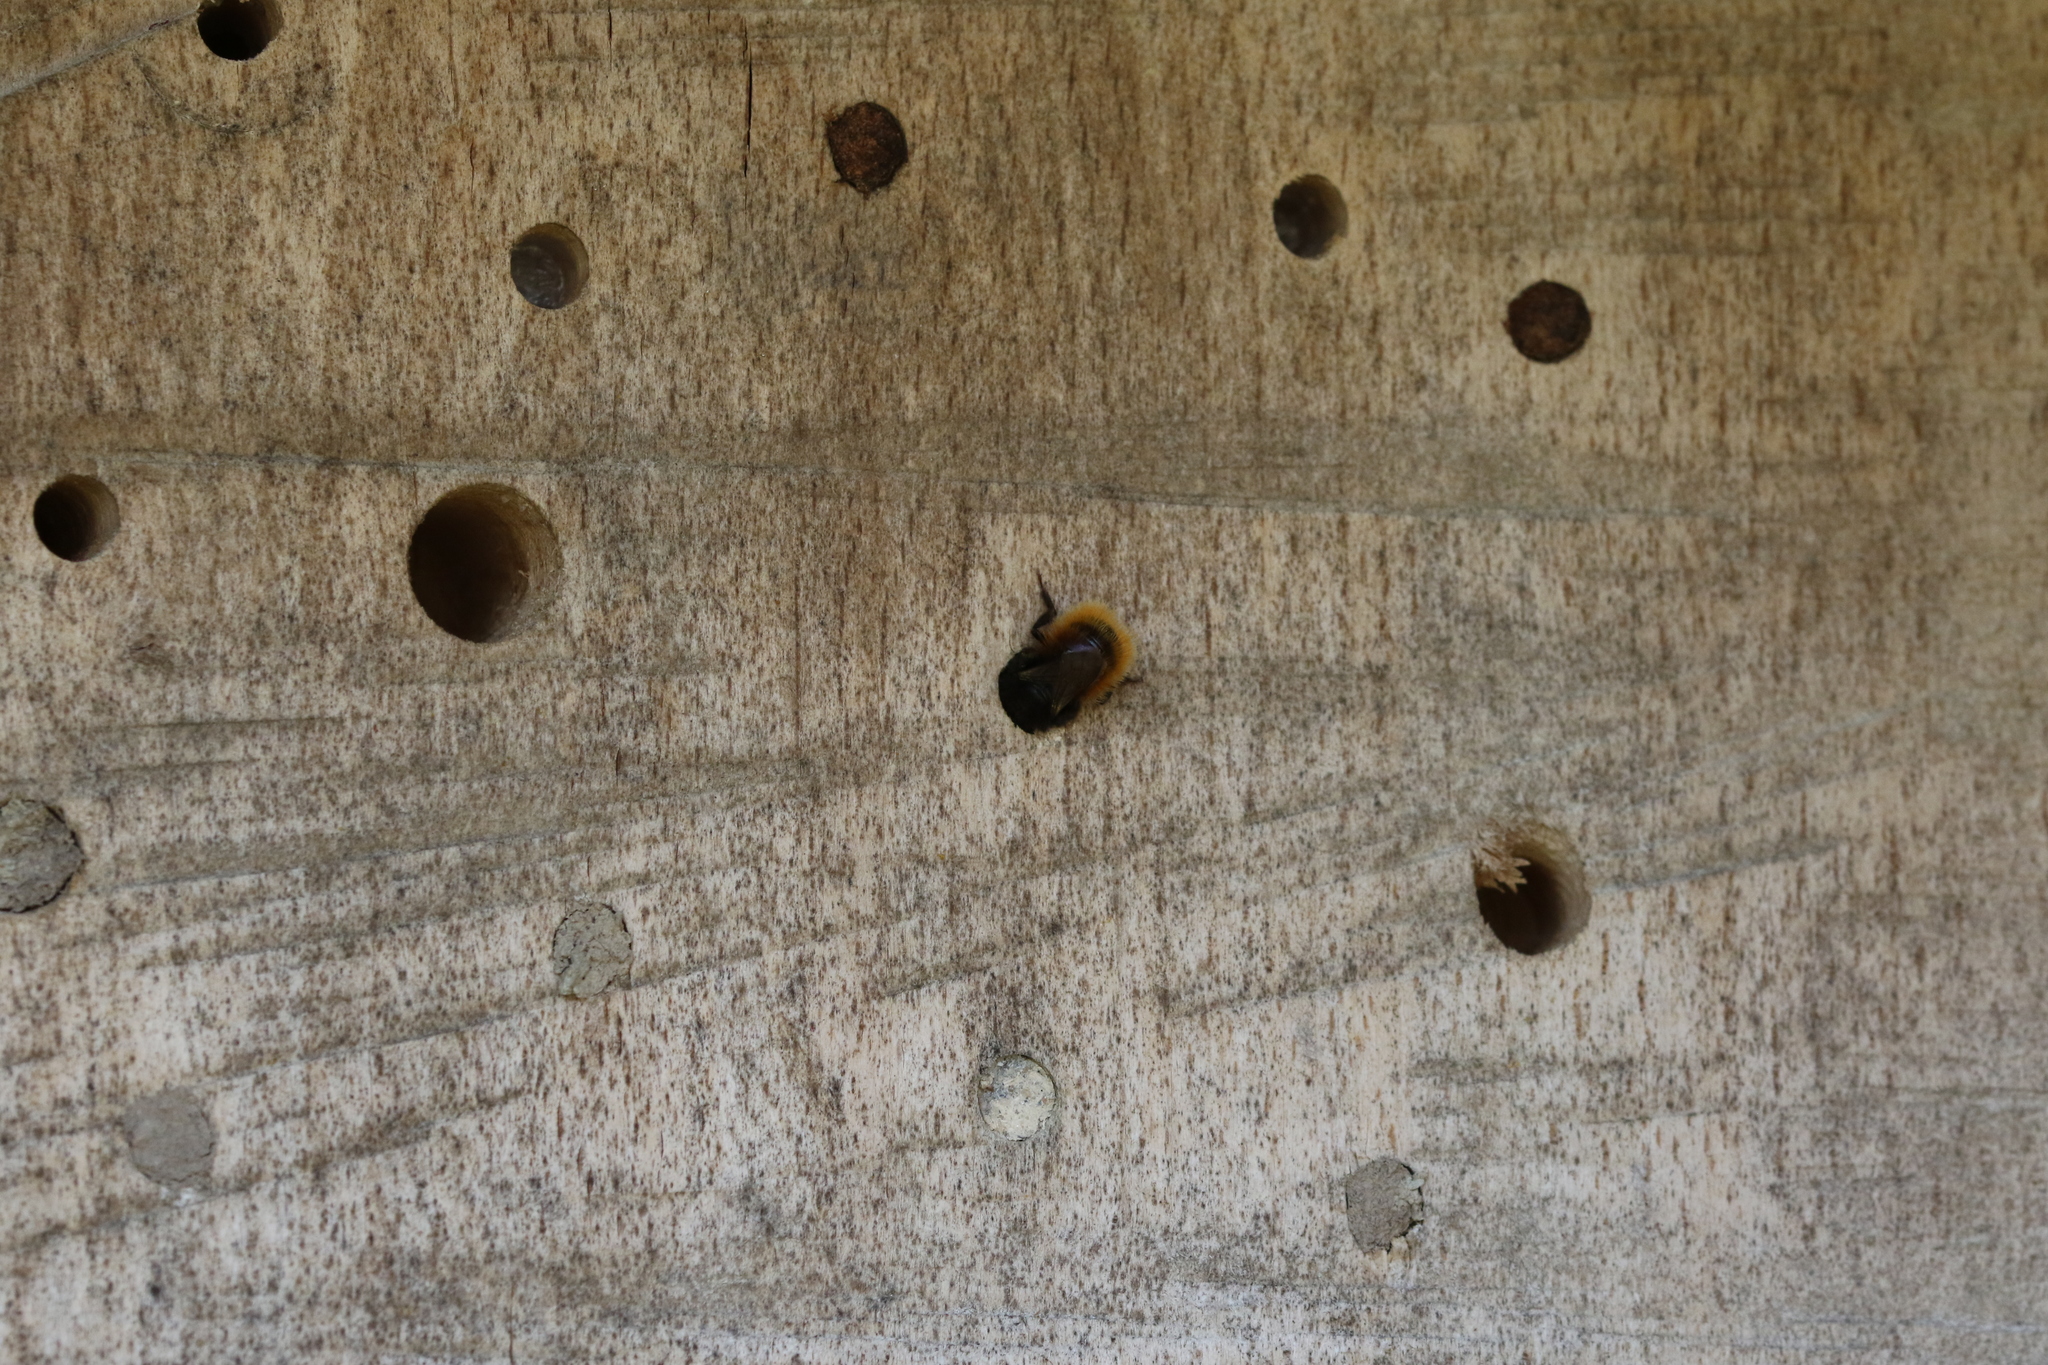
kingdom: Animalia
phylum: Arthropoda
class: Insecta
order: Hymenoptera
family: Megachilidae
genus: Osmia
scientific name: Osmia cornuta
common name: Mason bee
